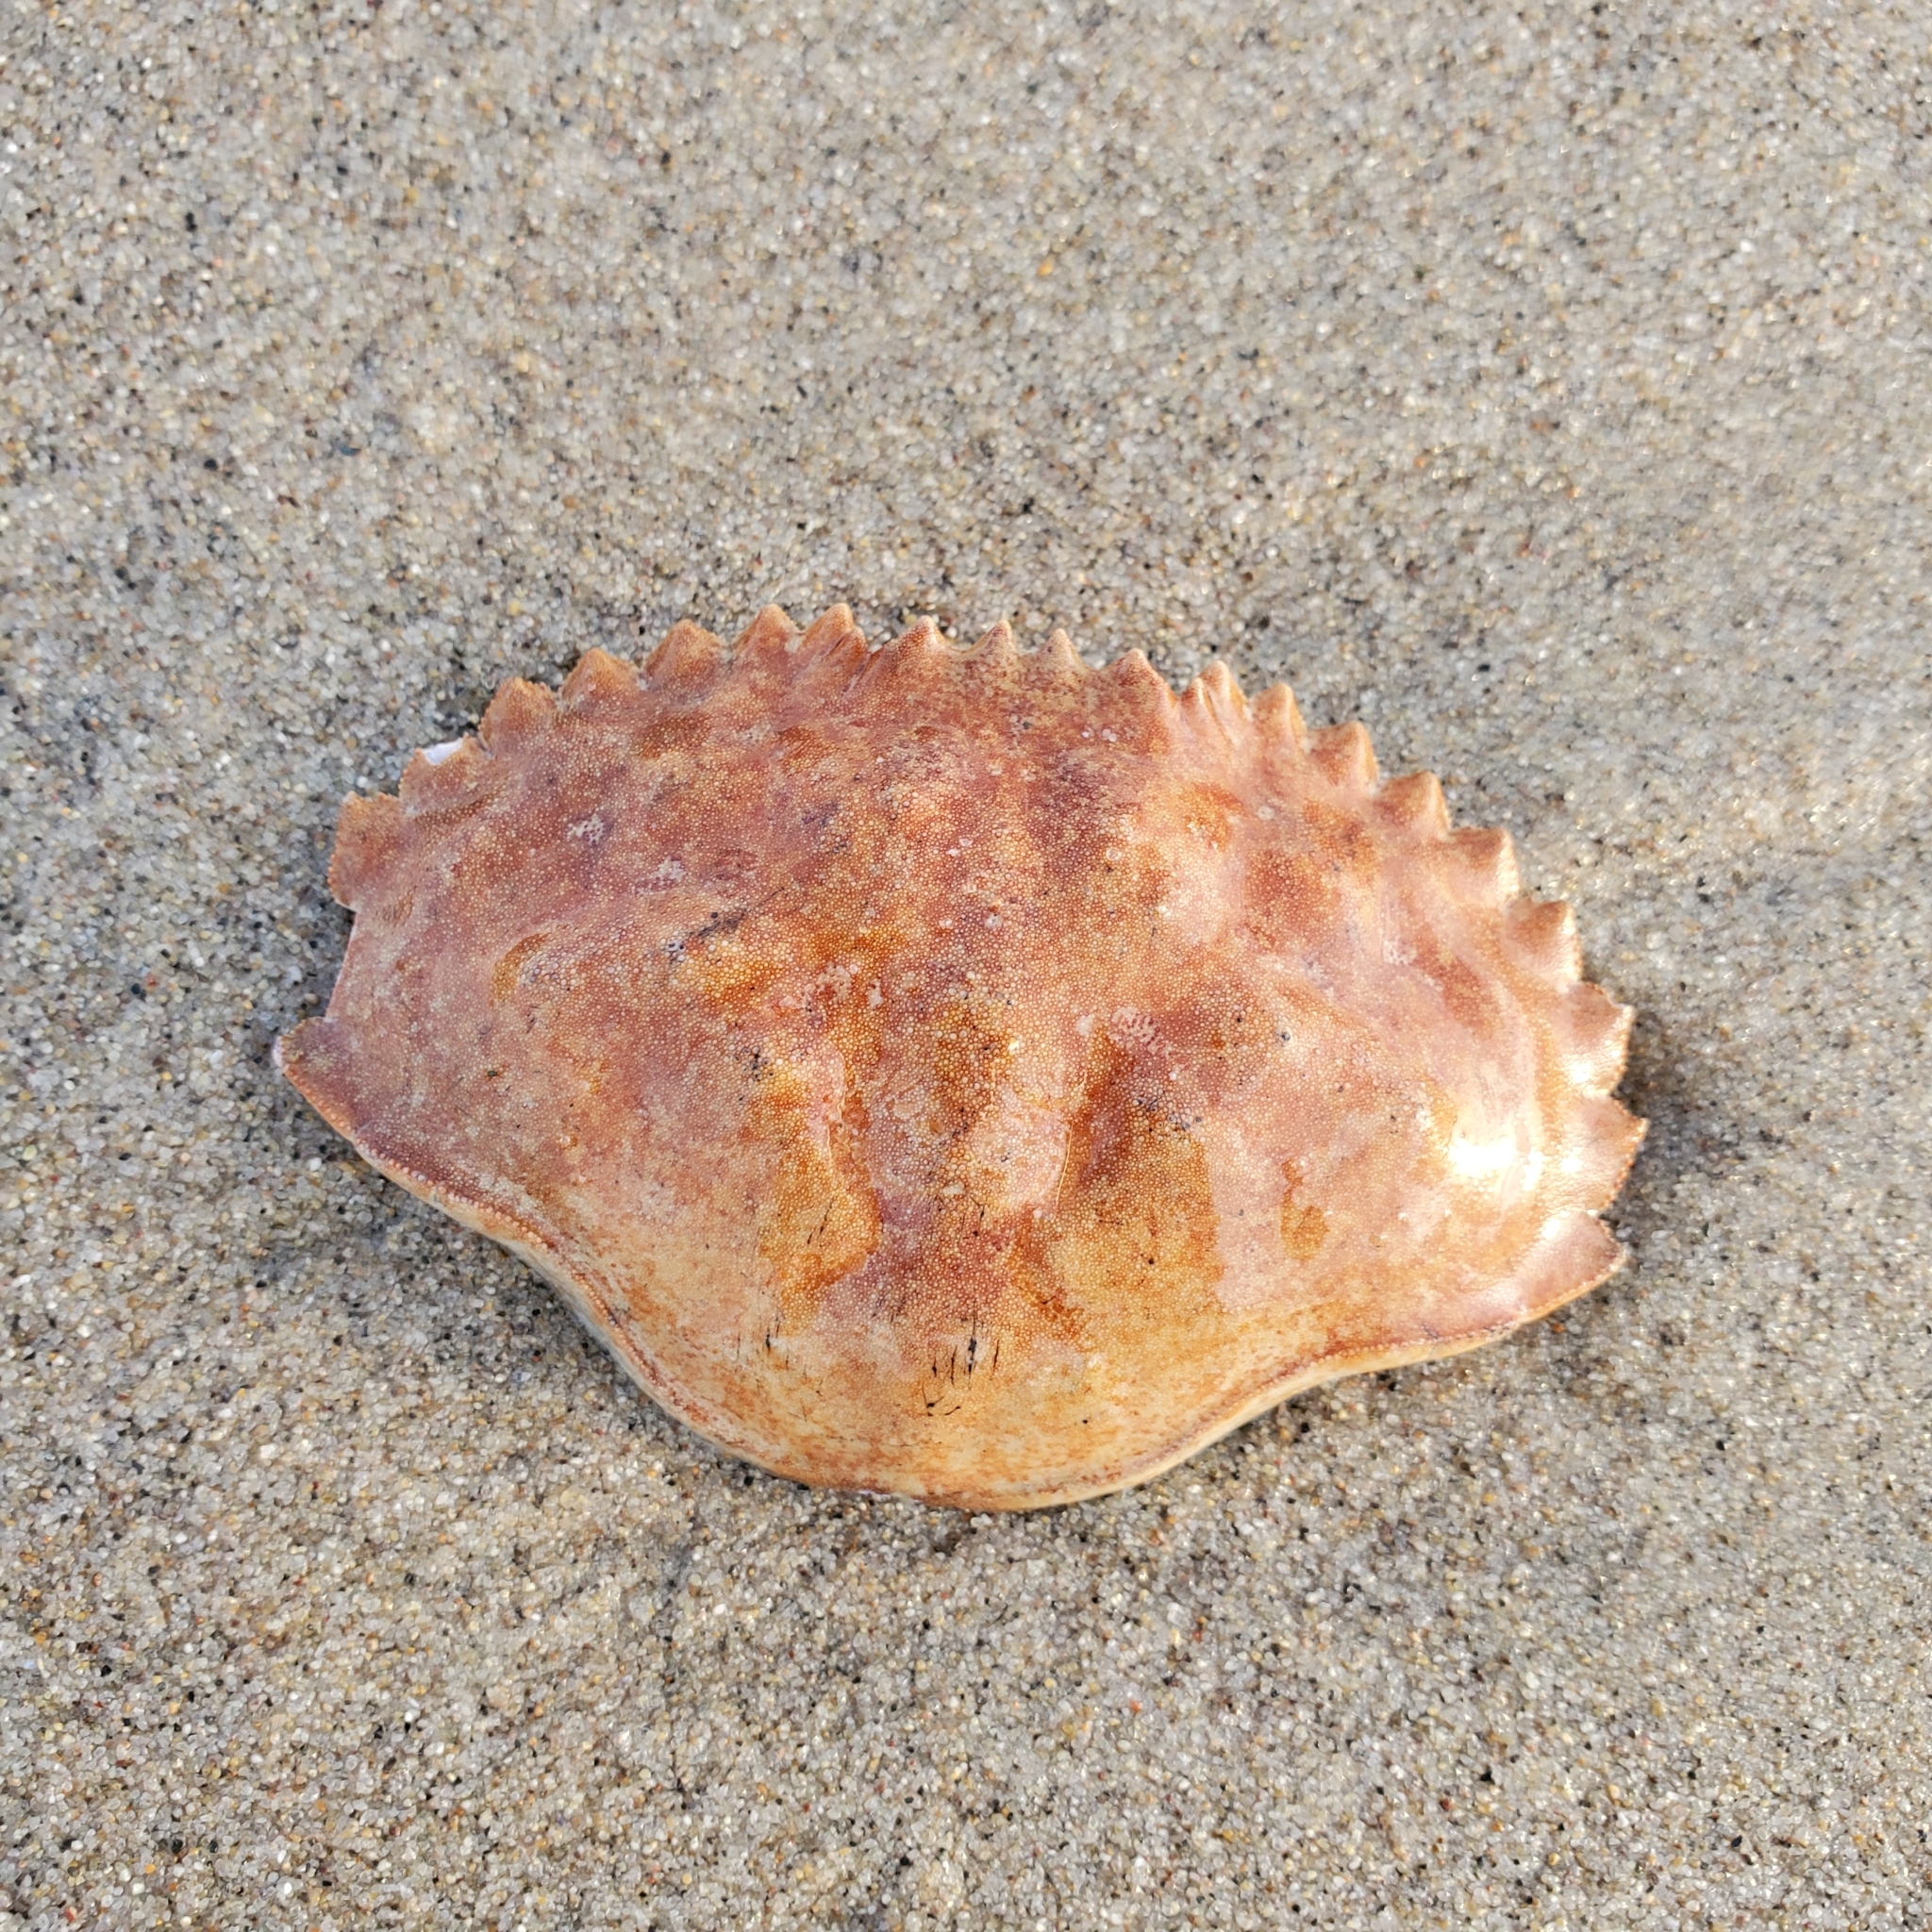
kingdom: Animalia
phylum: Arthropoda
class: Malacostraca
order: Decapoda
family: Cancridae
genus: Metacarcinus
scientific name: Metacarcinus anthonyi
